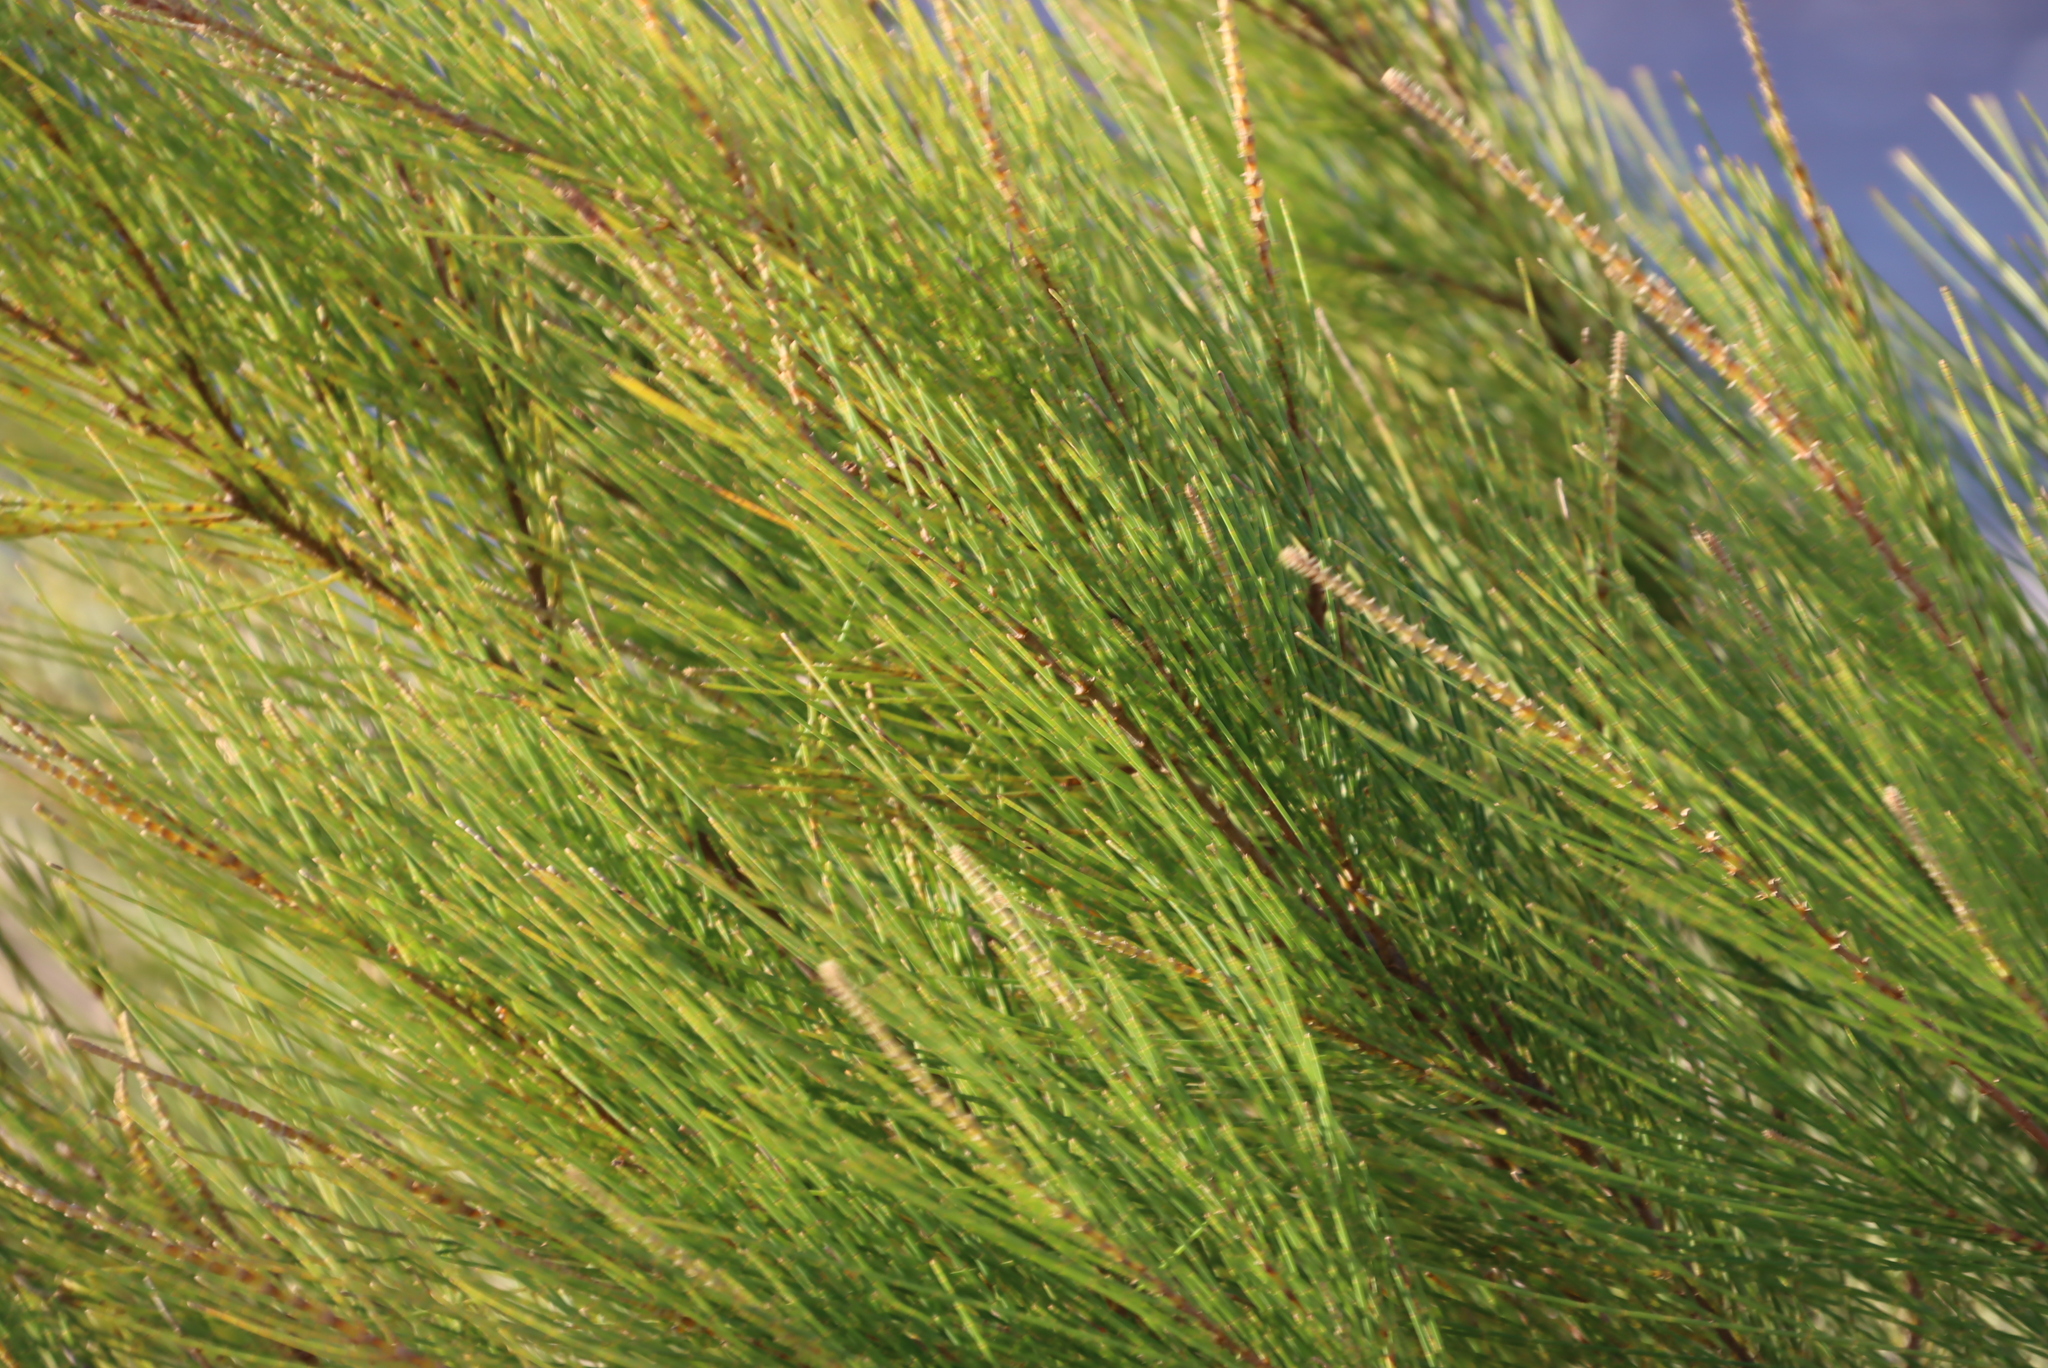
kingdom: Plantae
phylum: Tracheophyta
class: Magnoliopsida
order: Fagales
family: Casuarinaceae
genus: Casuarina
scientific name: Casuarina cunninghamiana
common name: River sheoak
